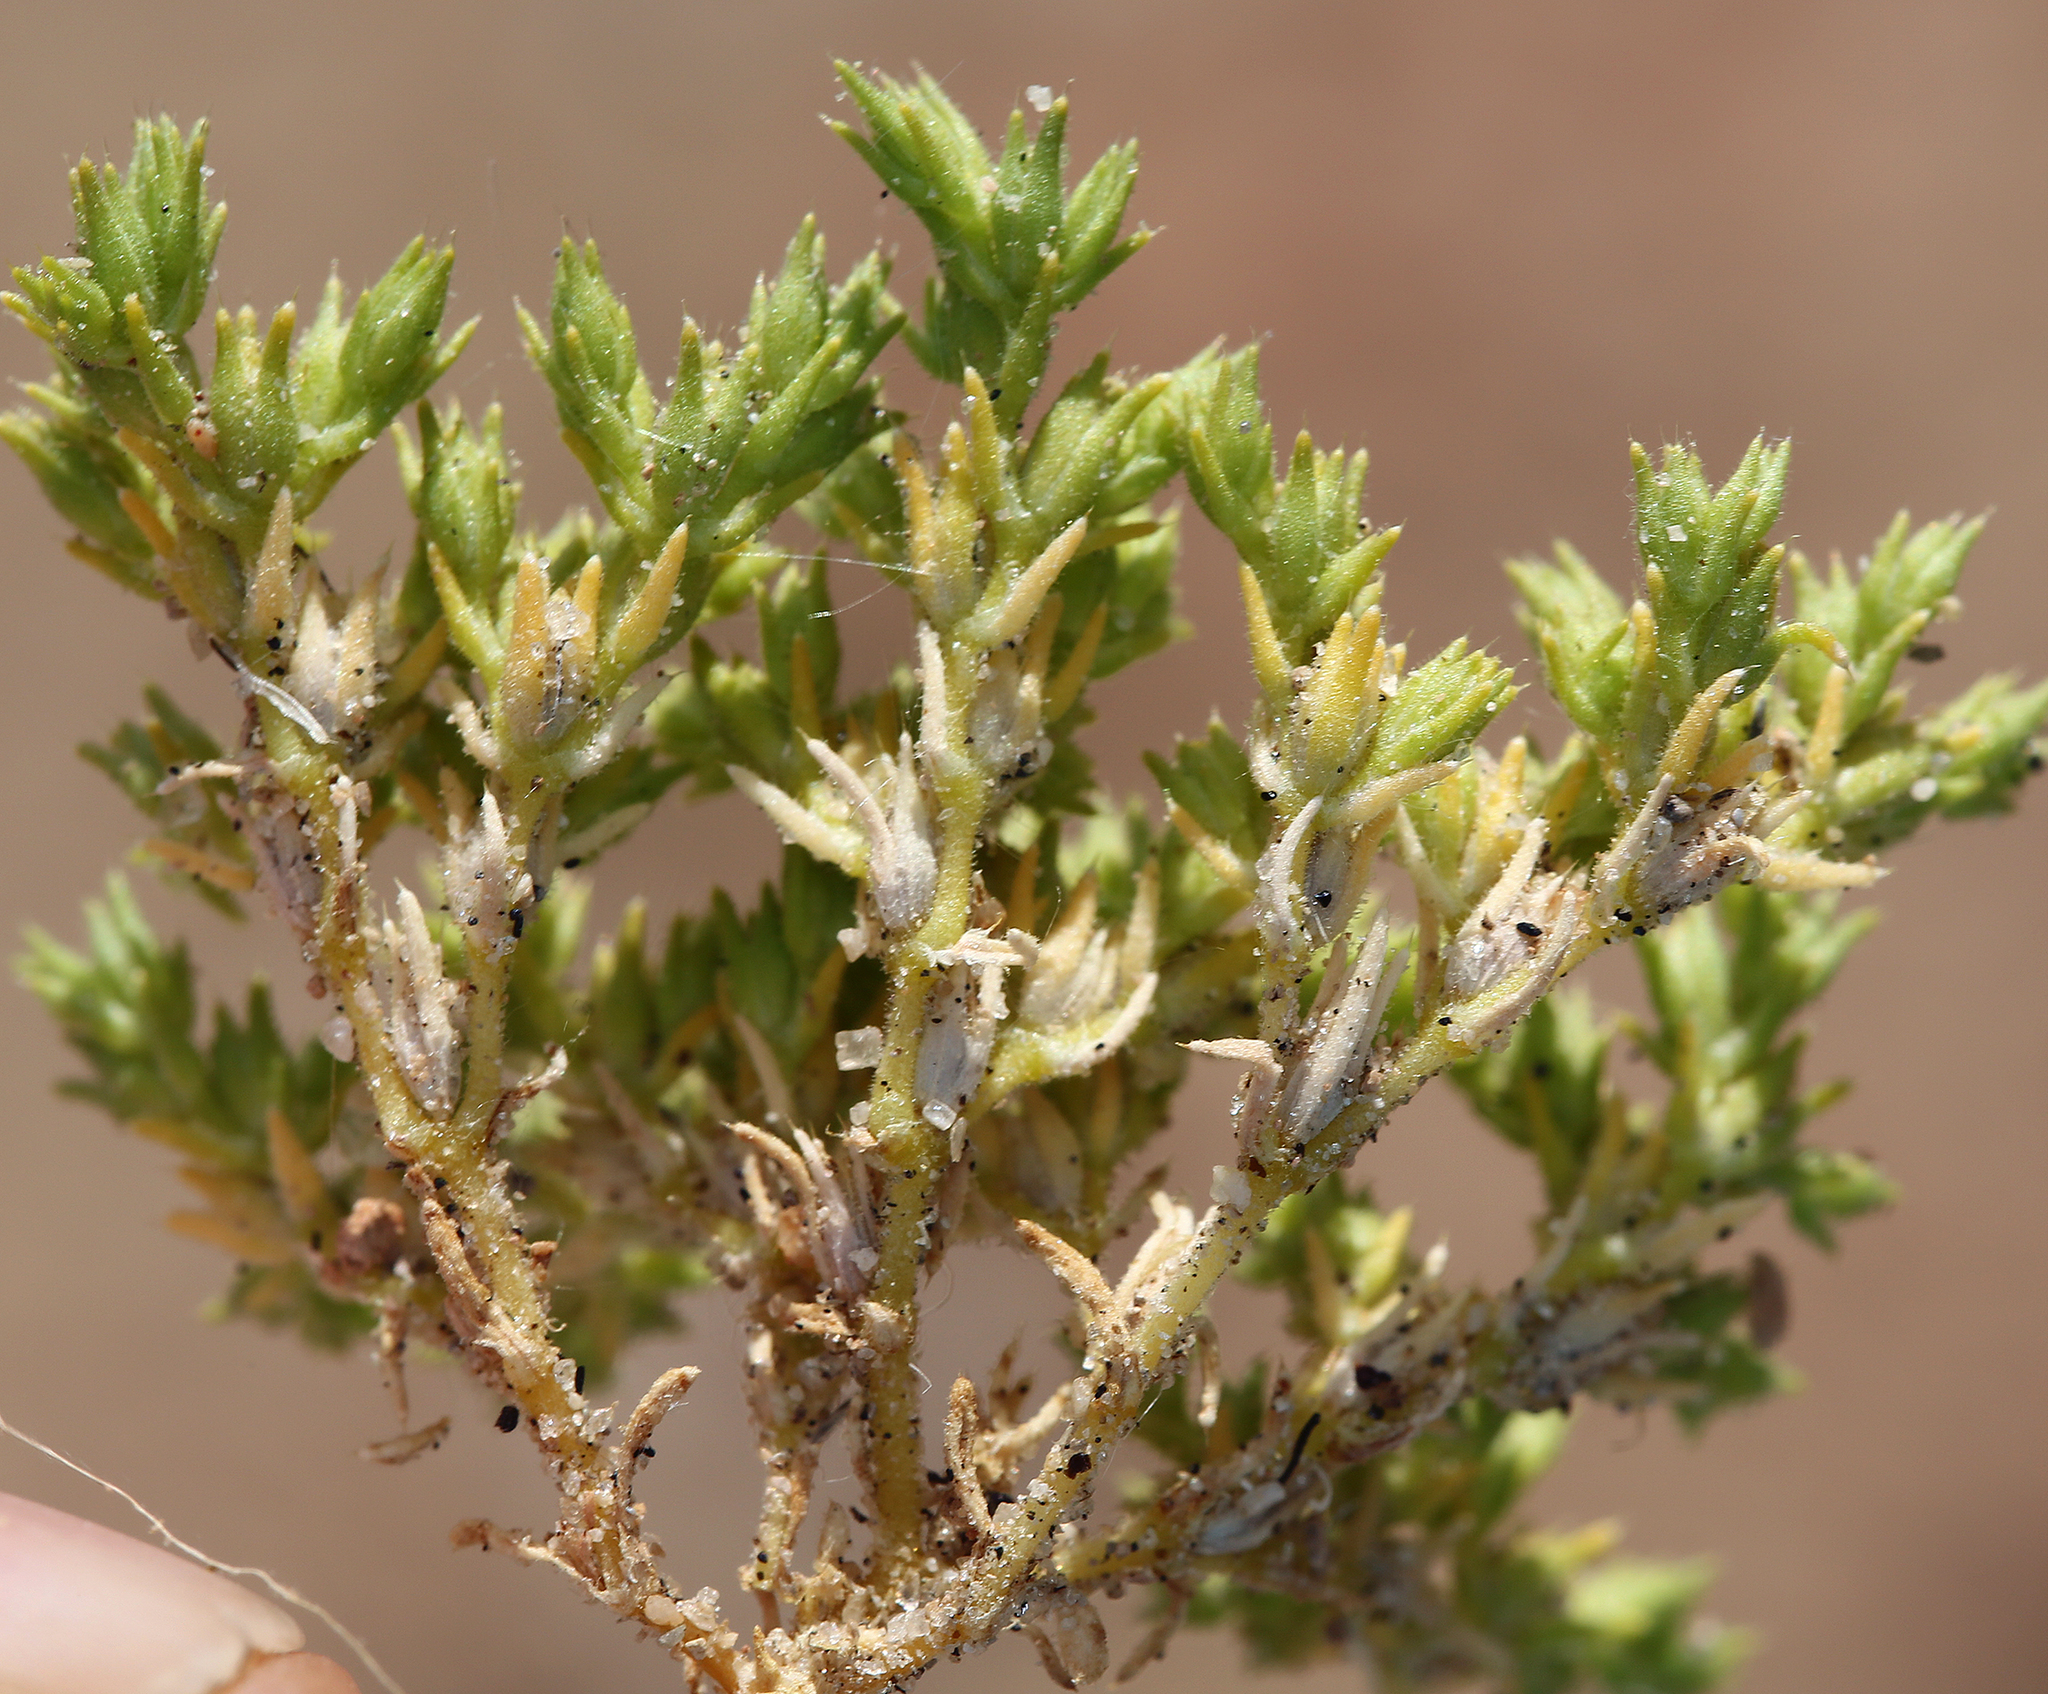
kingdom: Plantae
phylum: Tracheophyta
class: Magnoliopsida
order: Caryophyllales
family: Caryophyllaceae
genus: Loeflingia
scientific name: Loeflingia squarrosa
